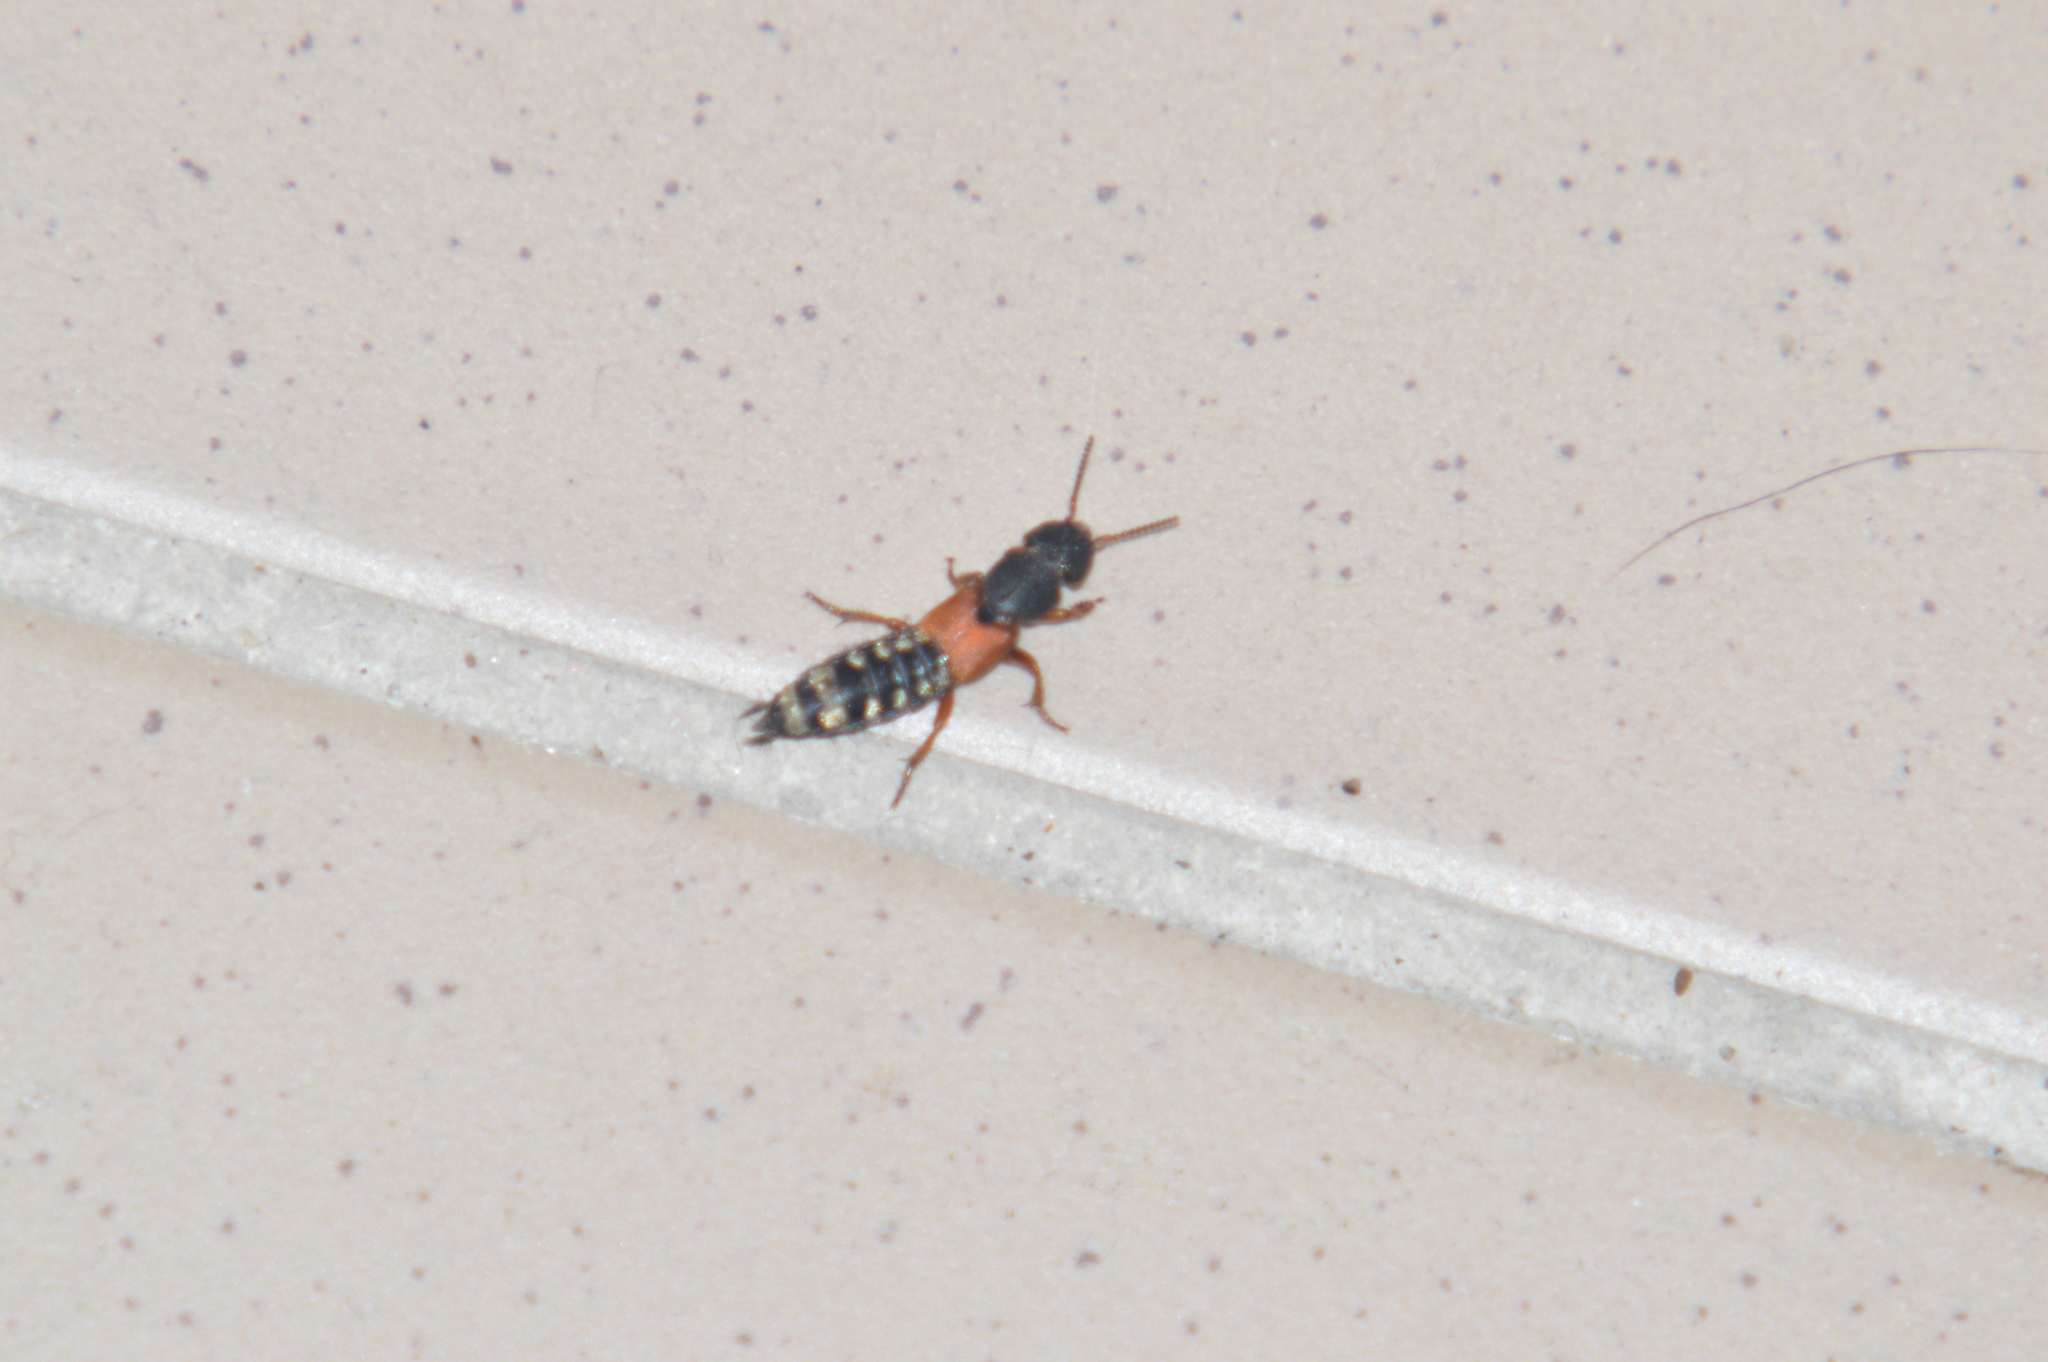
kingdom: Animalia
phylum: Arthropoda
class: Insecta
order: Coleoptera
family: Staphylinidae
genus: Platydracus
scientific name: Platydracus stercorarius
